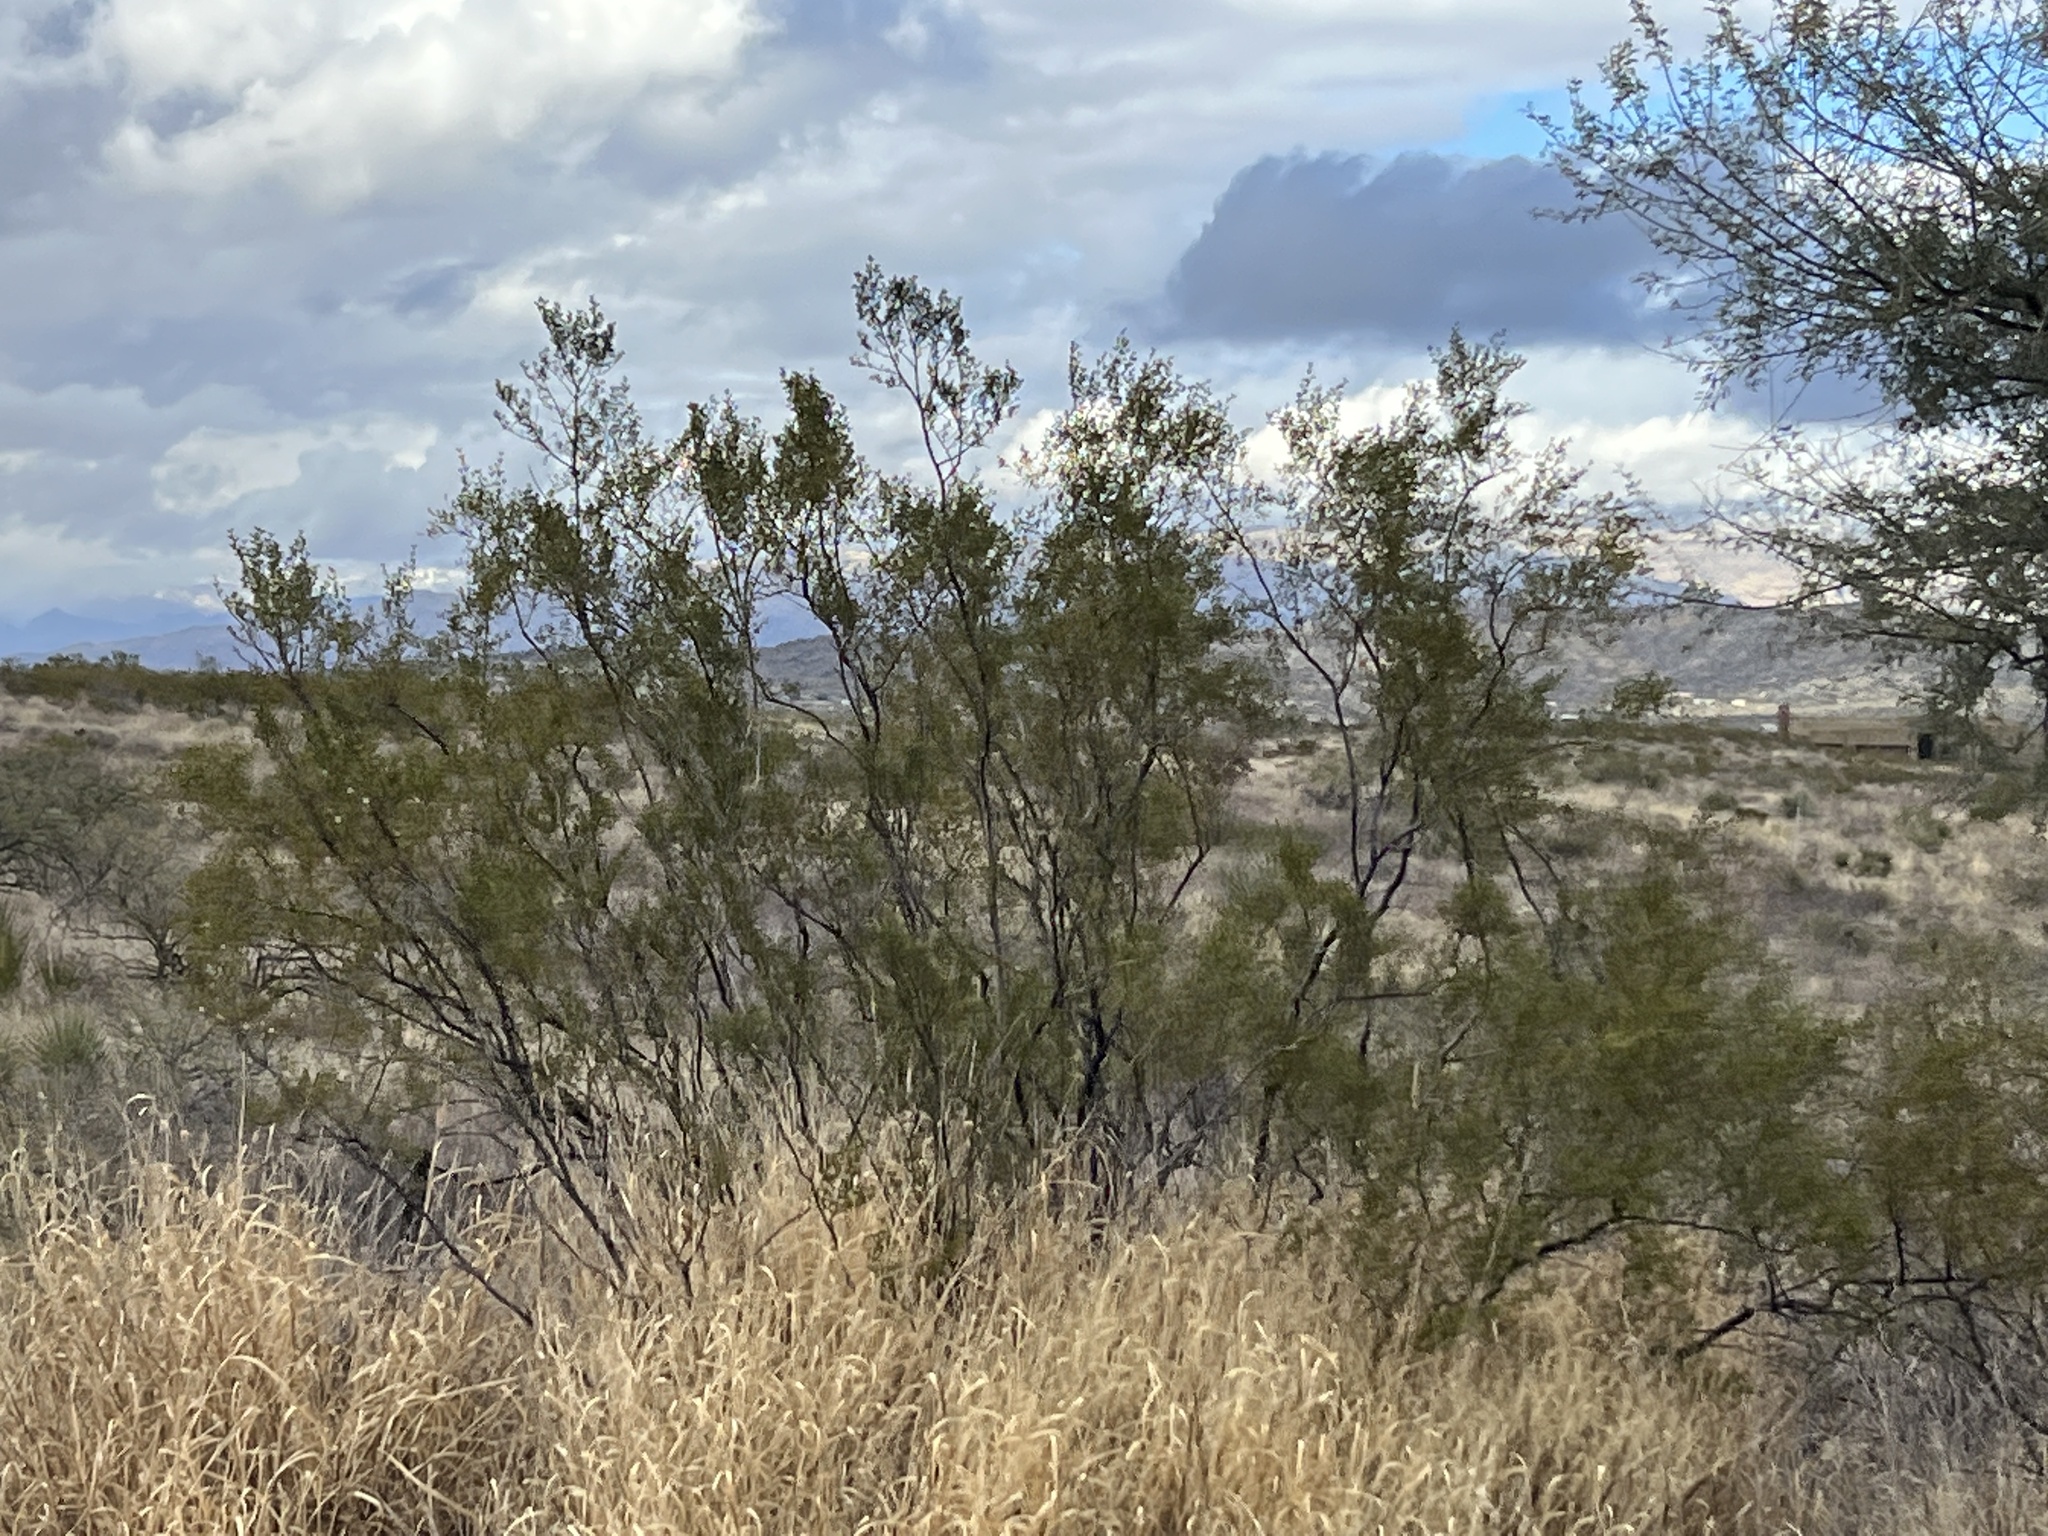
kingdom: Plantae
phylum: Tracheophyta
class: Magnoliopsida
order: Zygophyllales
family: Zygophyllaceae
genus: Larrea
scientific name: Larrea tridentata
